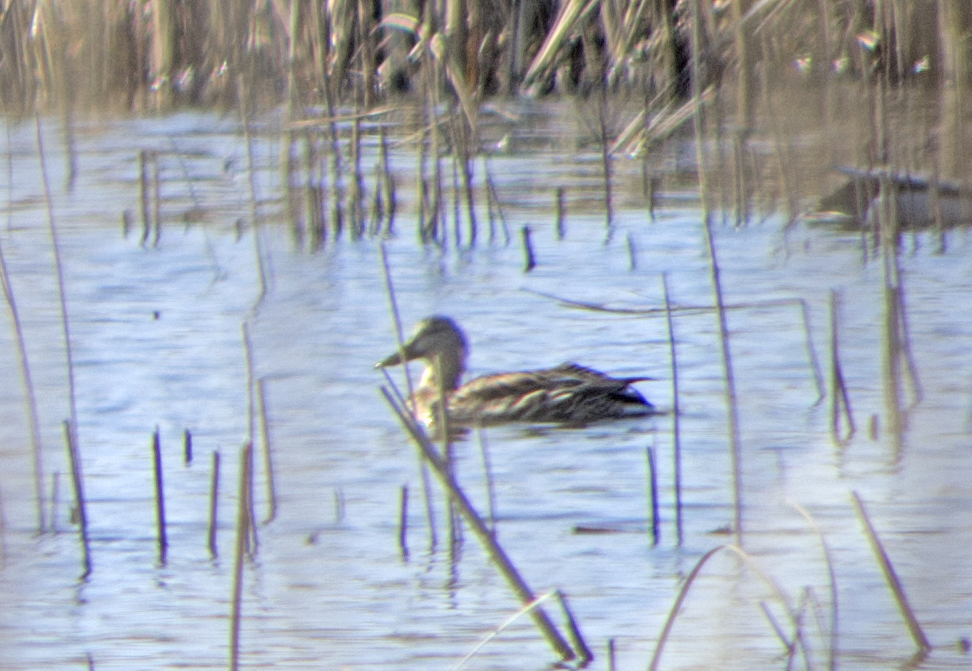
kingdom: Animalia
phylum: Chordata
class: Aves
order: Anseriformes
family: Anatidae
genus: Anas
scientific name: Anas platyrhynchos
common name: Mallard
